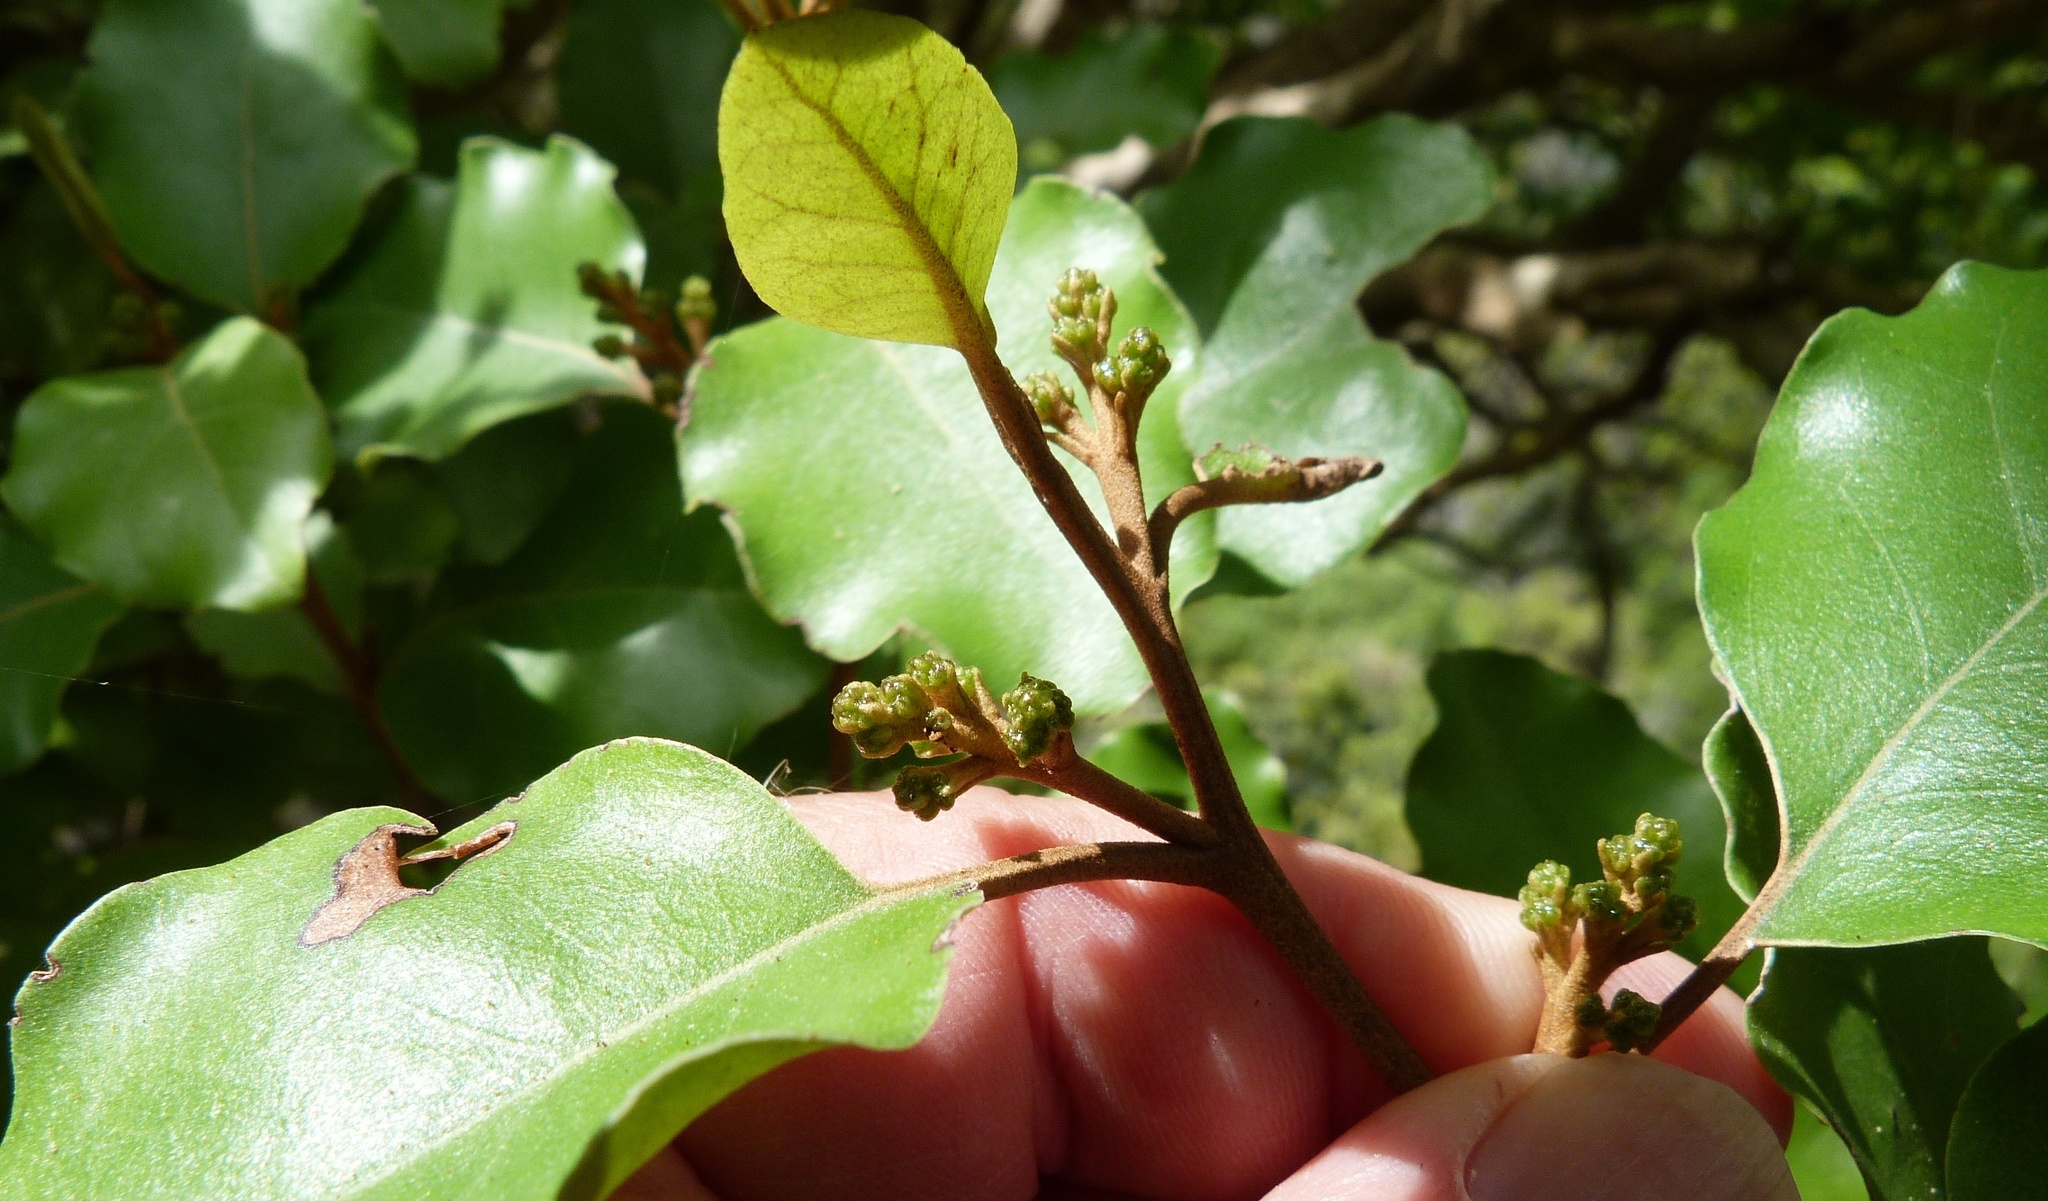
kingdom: Plantae
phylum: Tracheophyta
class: Magnoliopsida
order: Asterales
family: Asteraceae
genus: Olearia
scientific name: Olearia paniculata
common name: Akiraho
